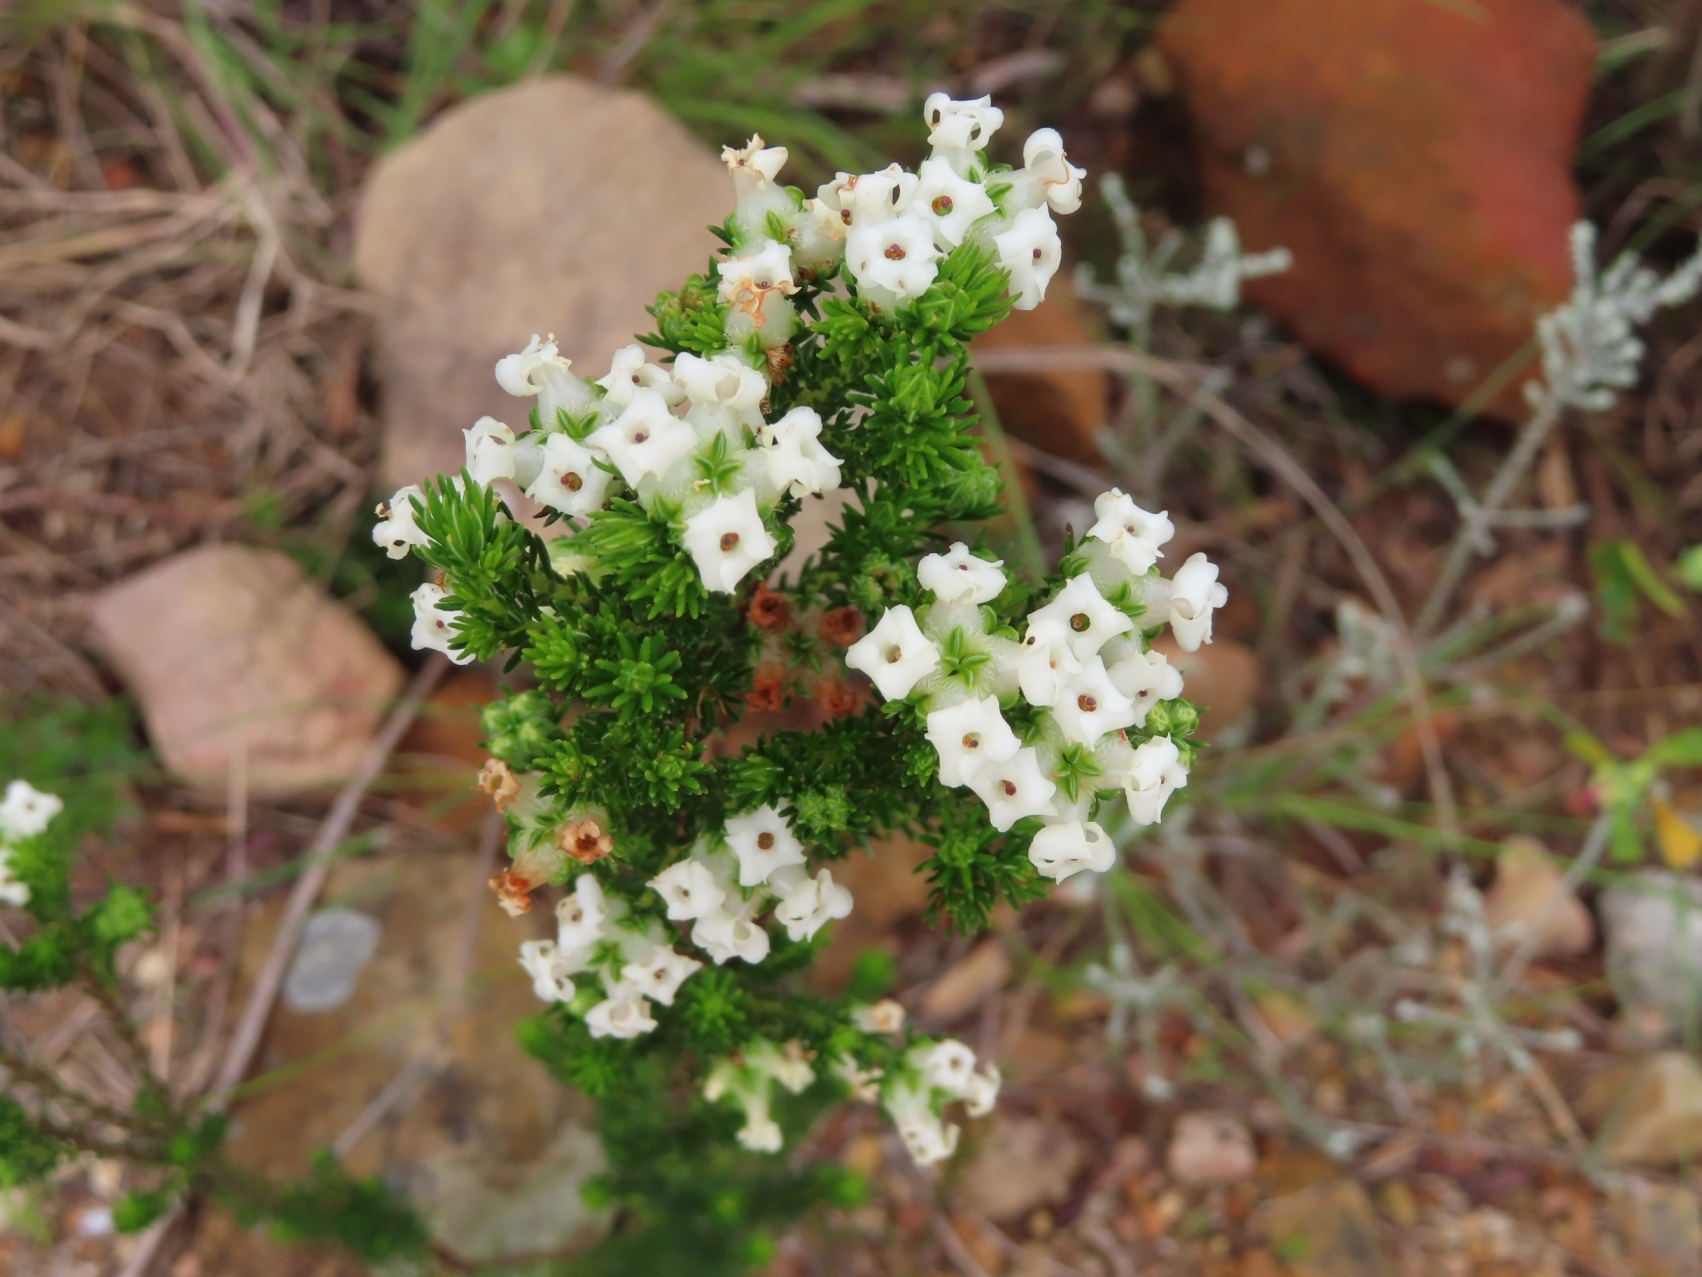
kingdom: Plantae
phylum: Tracheophyta
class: Magnoliopsida
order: Ericales
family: Ericaceae
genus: Erica
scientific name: Erica denticulata
